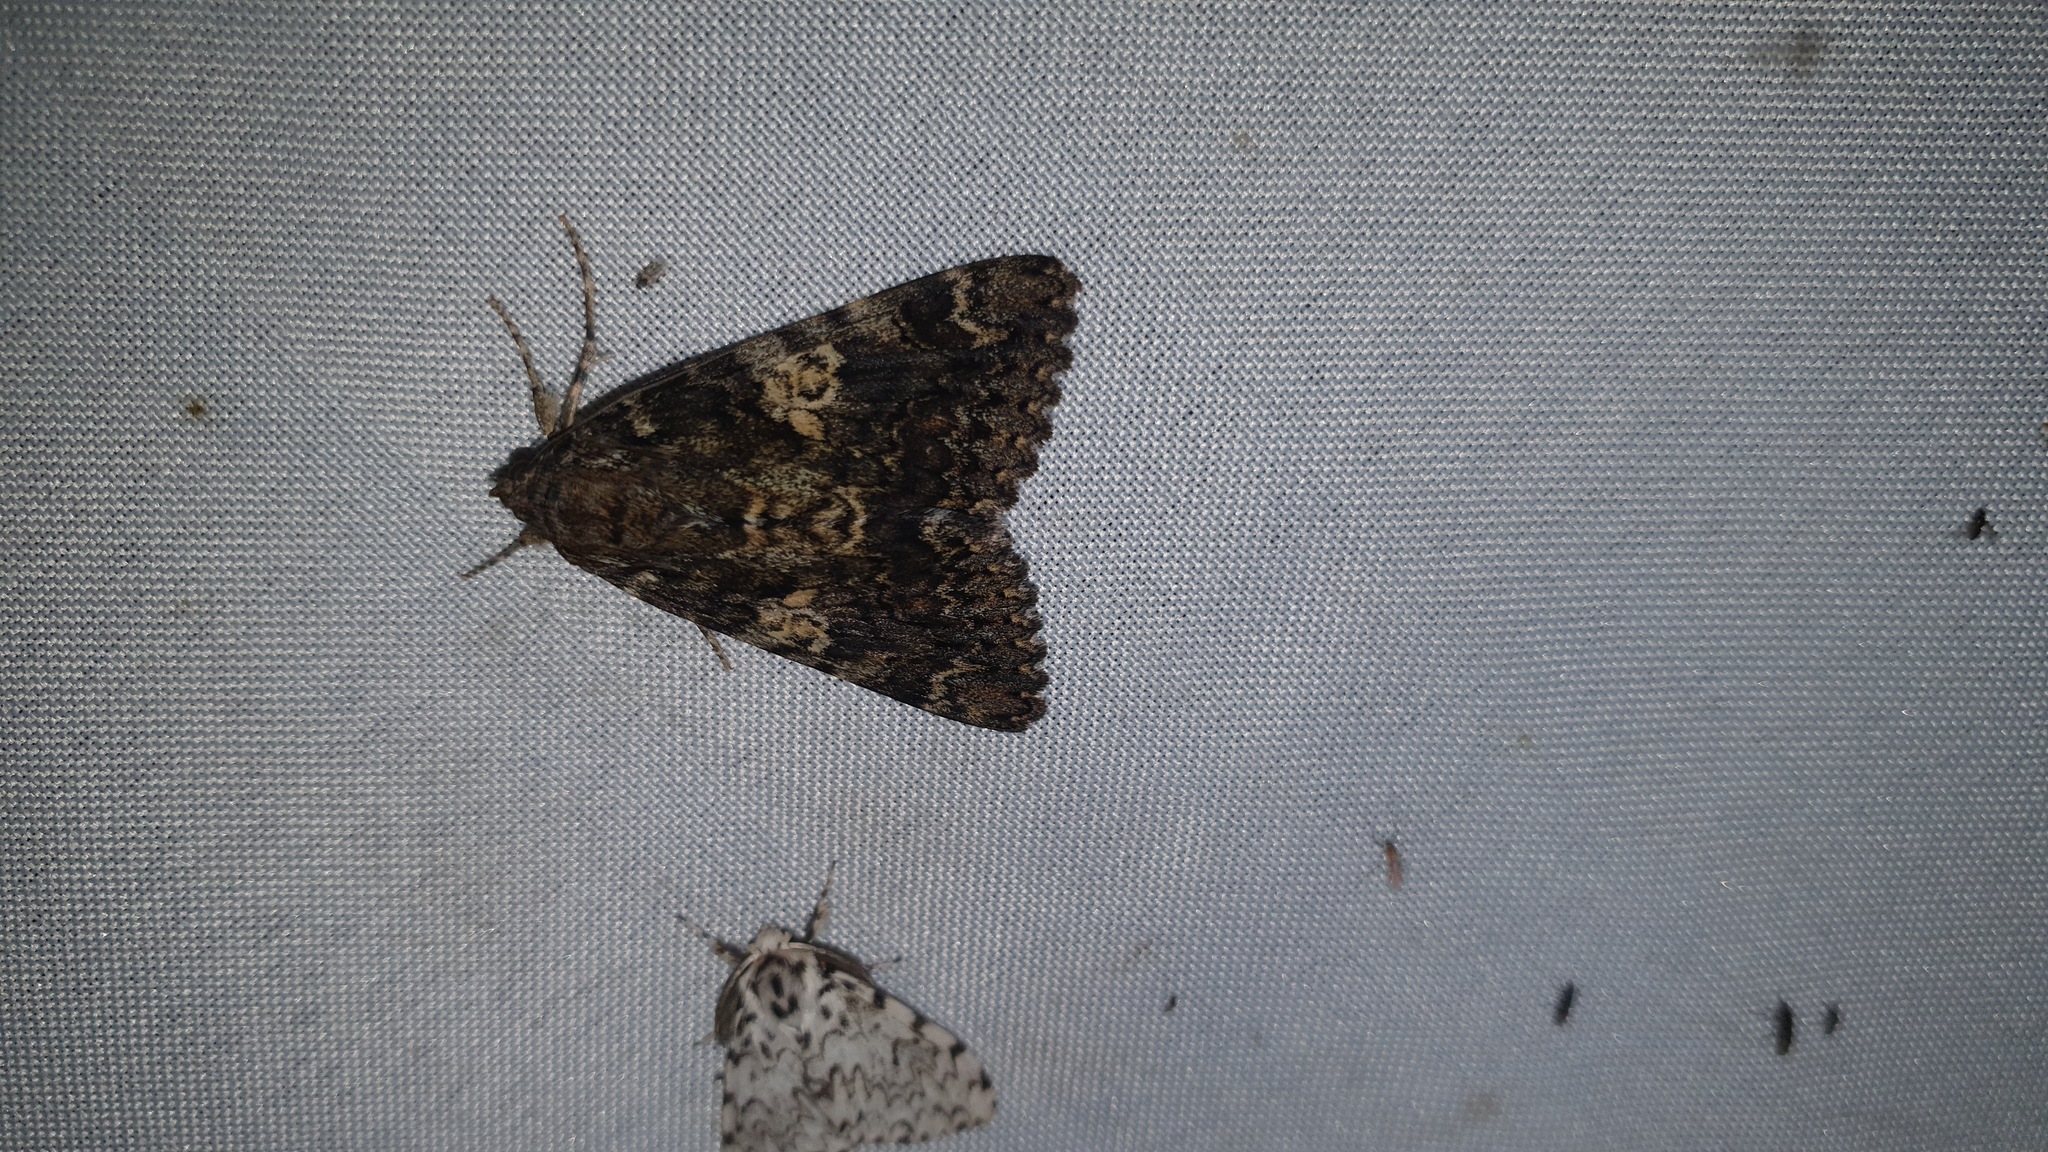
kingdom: Animalia
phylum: Arthropoda
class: Insecta
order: Lepidoptera
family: Erebidae
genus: Catocala
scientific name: Catocala sponsa
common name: Dark crimson underwing
